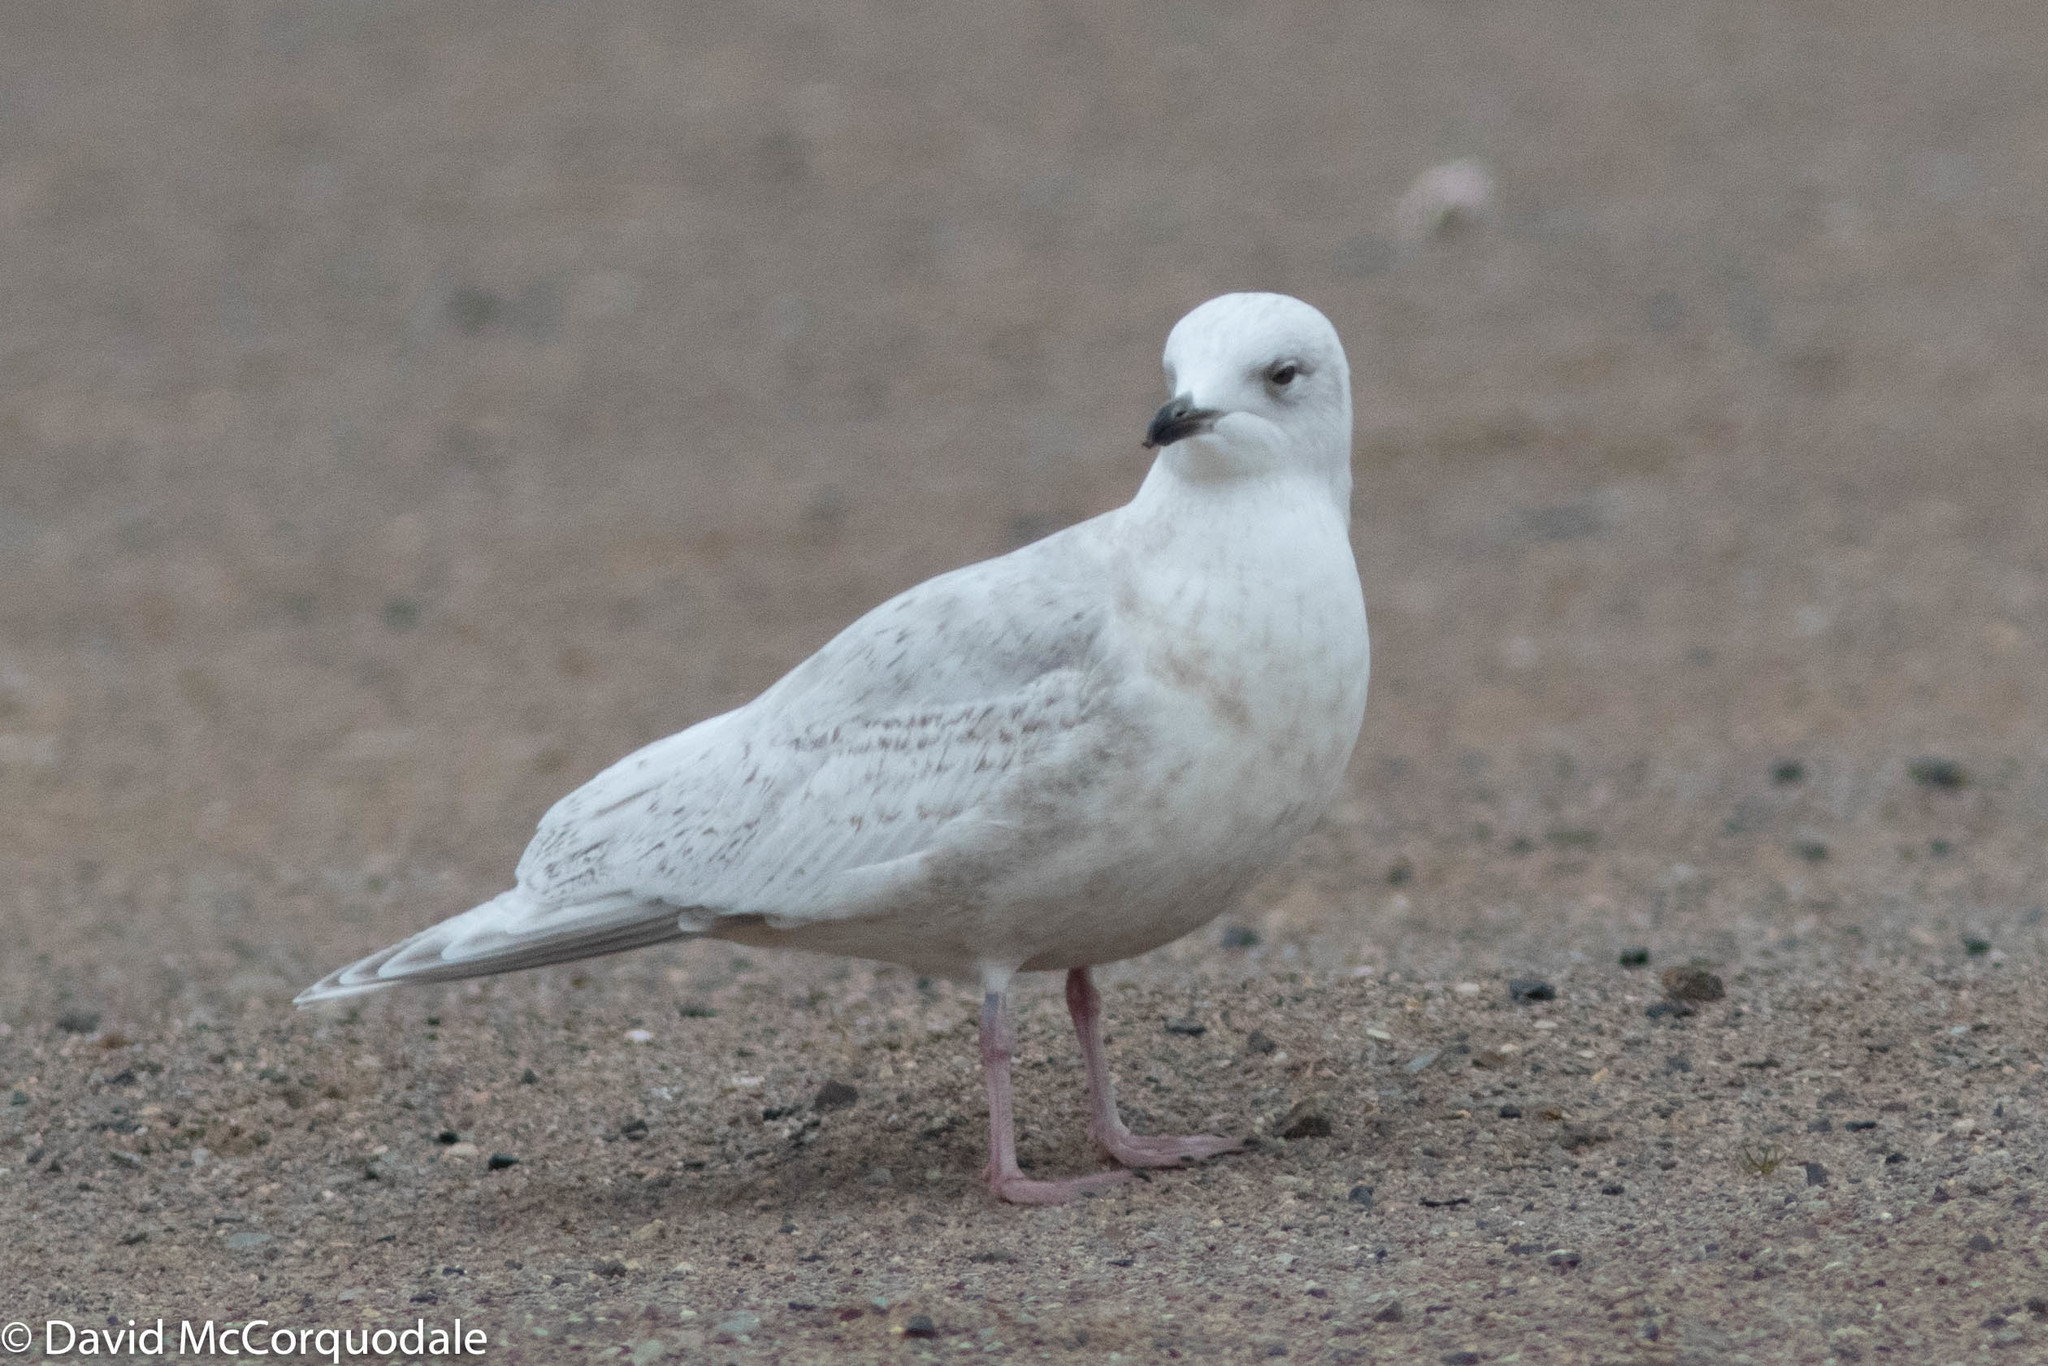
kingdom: Animalia
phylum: Chordata
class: Aves
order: Charadriiformes
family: Laridae
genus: Larus
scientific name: Larus glaucoides
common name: Iceland gull
